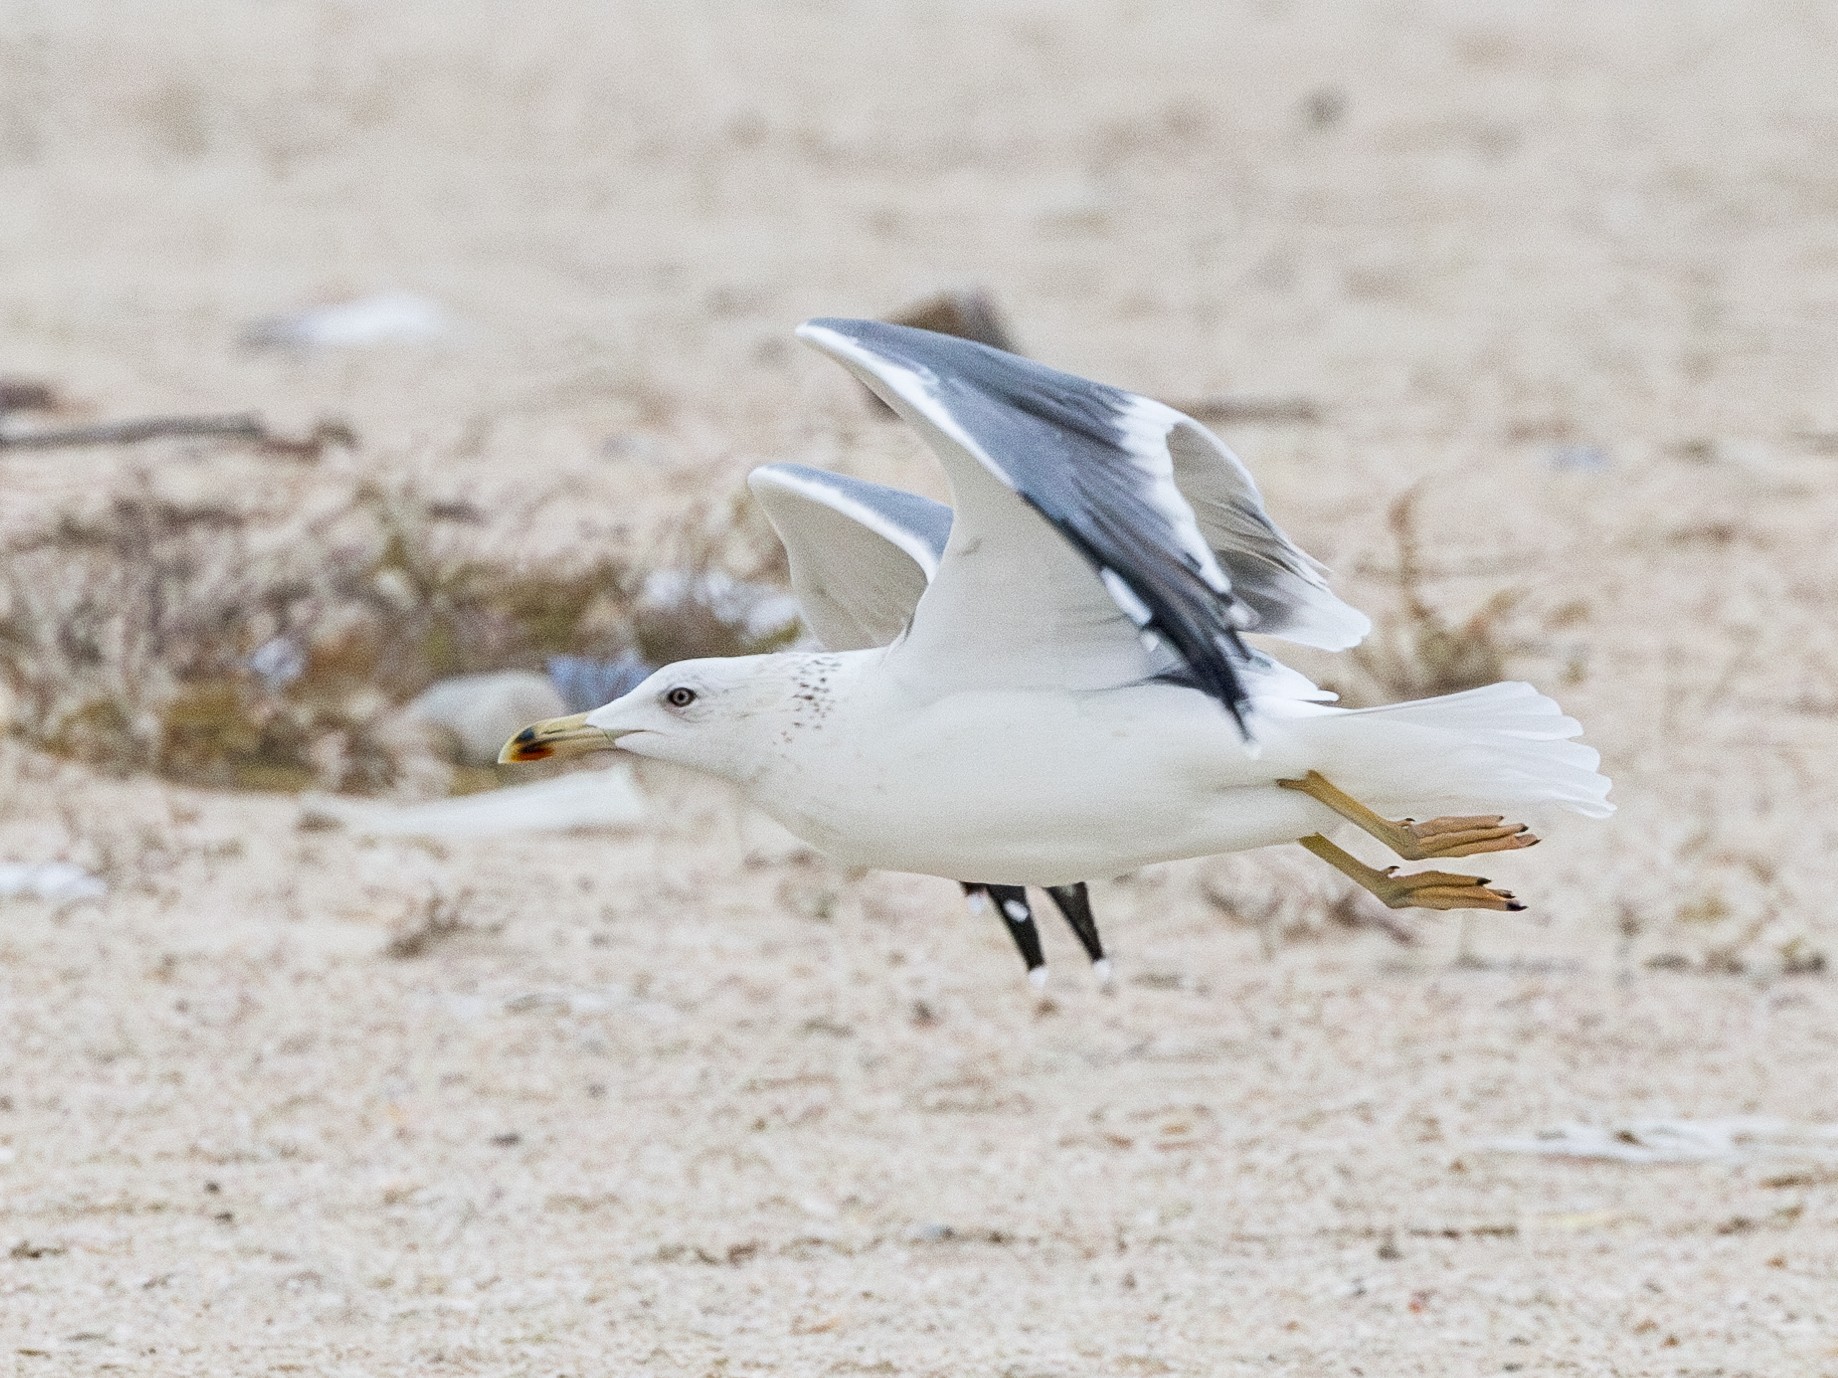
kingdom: Animalia
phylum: Chordata
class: Aves
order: Charadriiformes
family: Laridae
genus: Larus
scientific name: Larus fuscus
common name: Lesser black-backed gull
